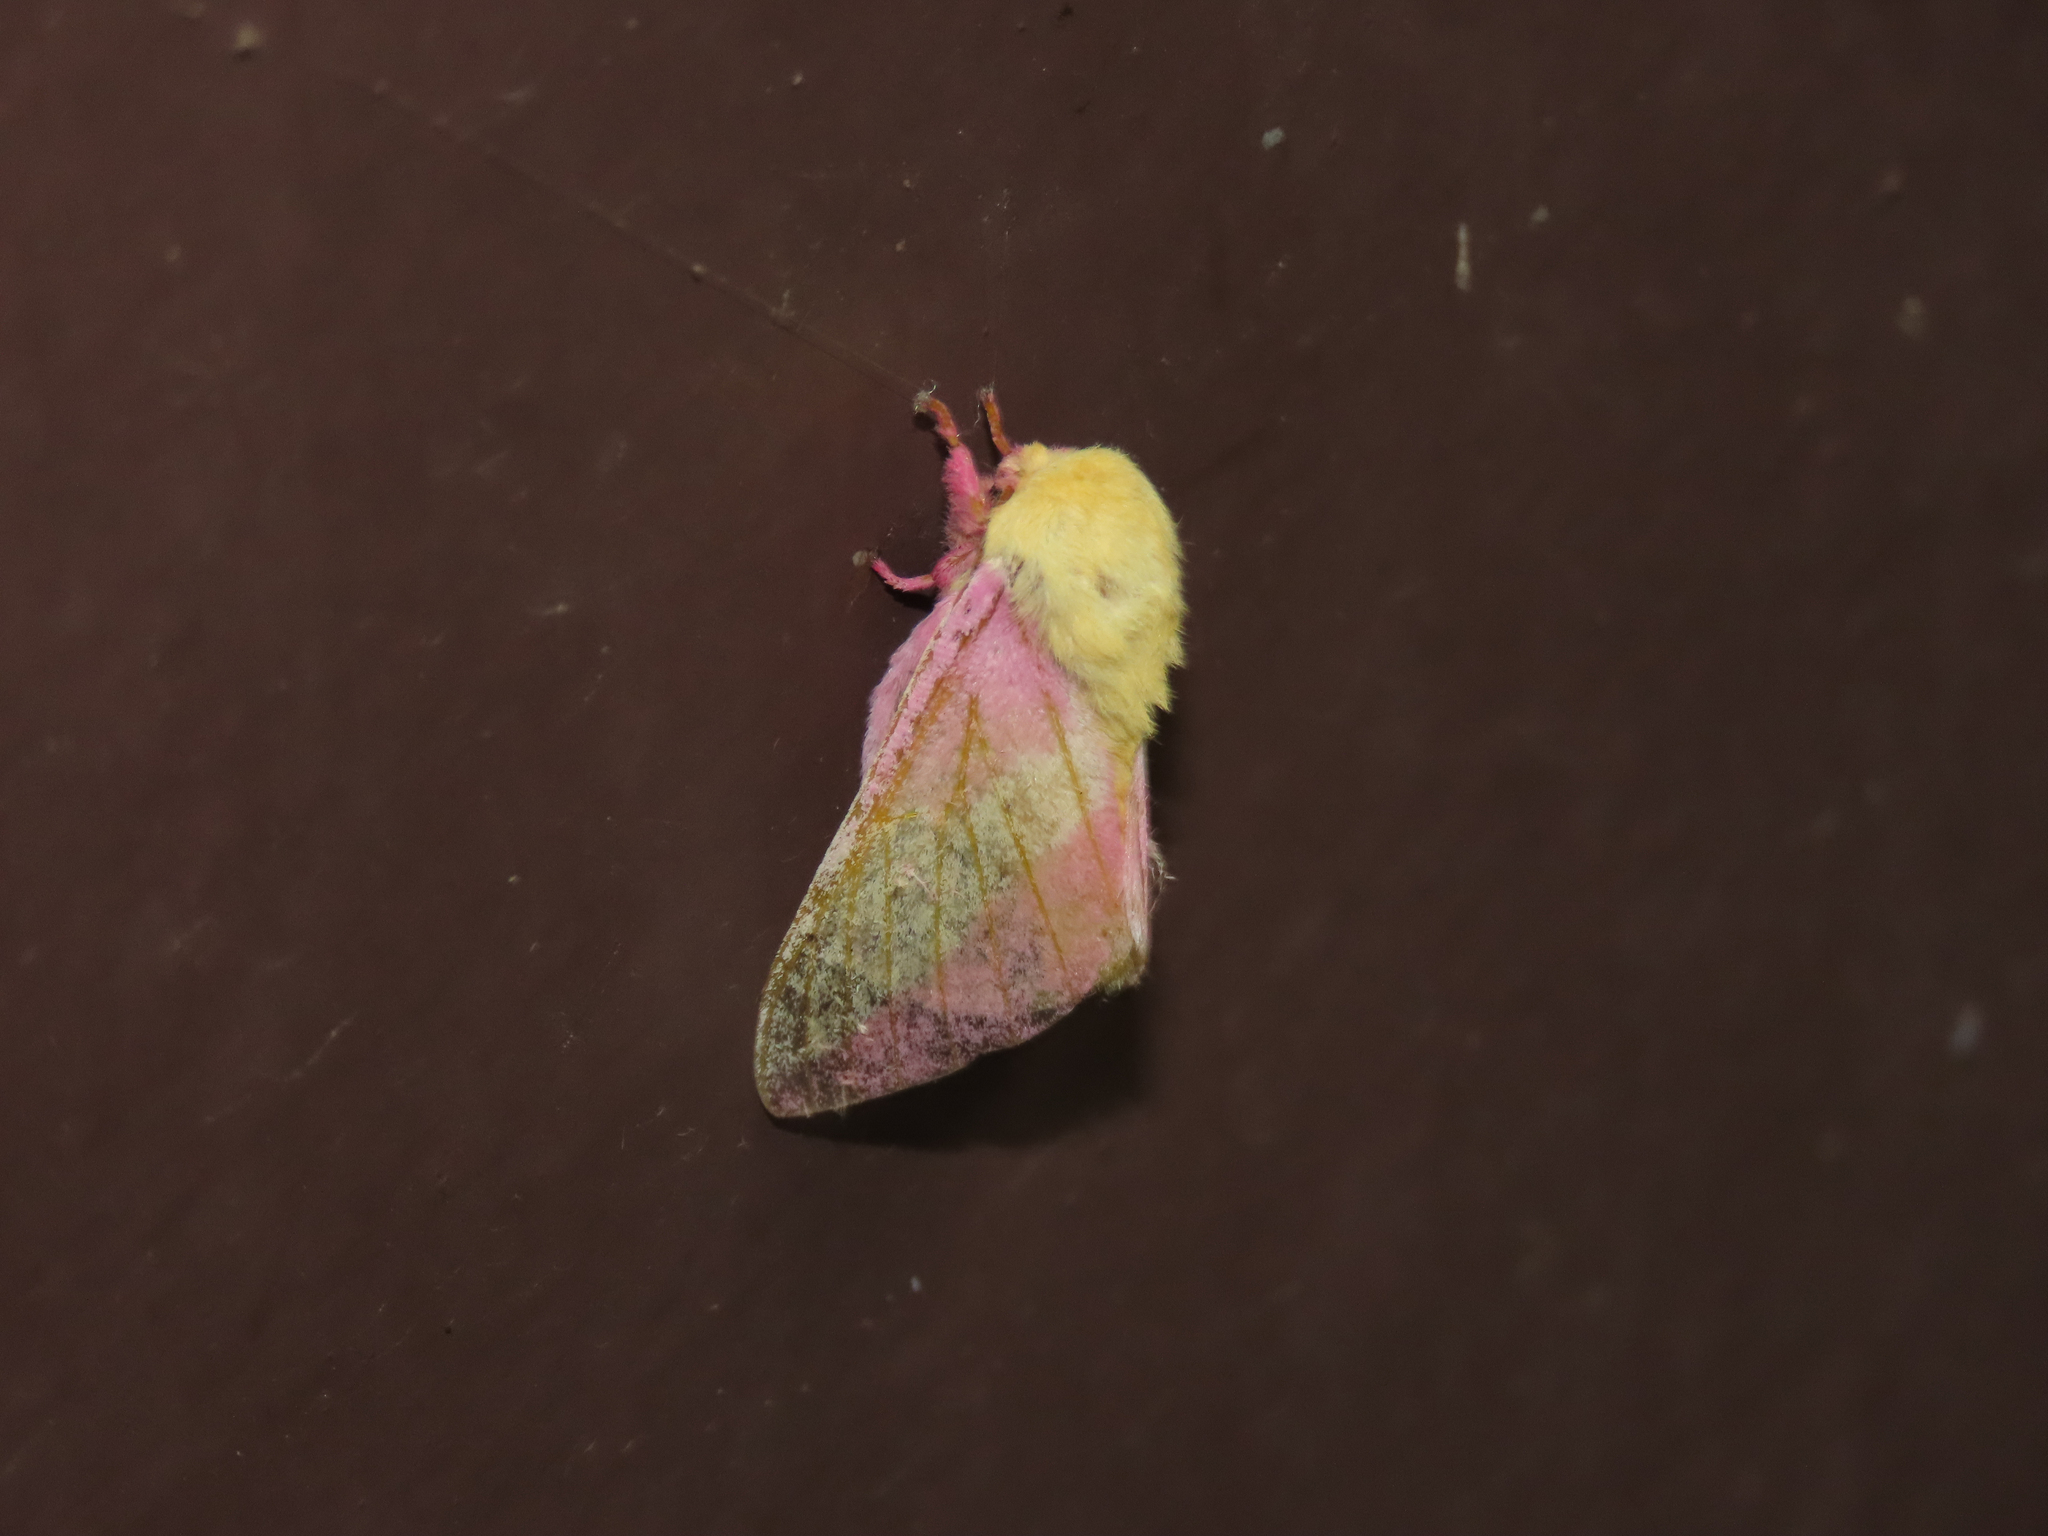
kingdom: Animalia
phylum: Arthropoda
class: Insecta
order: Lepidoptera
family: Saturniidae
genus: Dryocampa
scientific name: Dryocampa rubicunda
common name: Rosy maple moth
